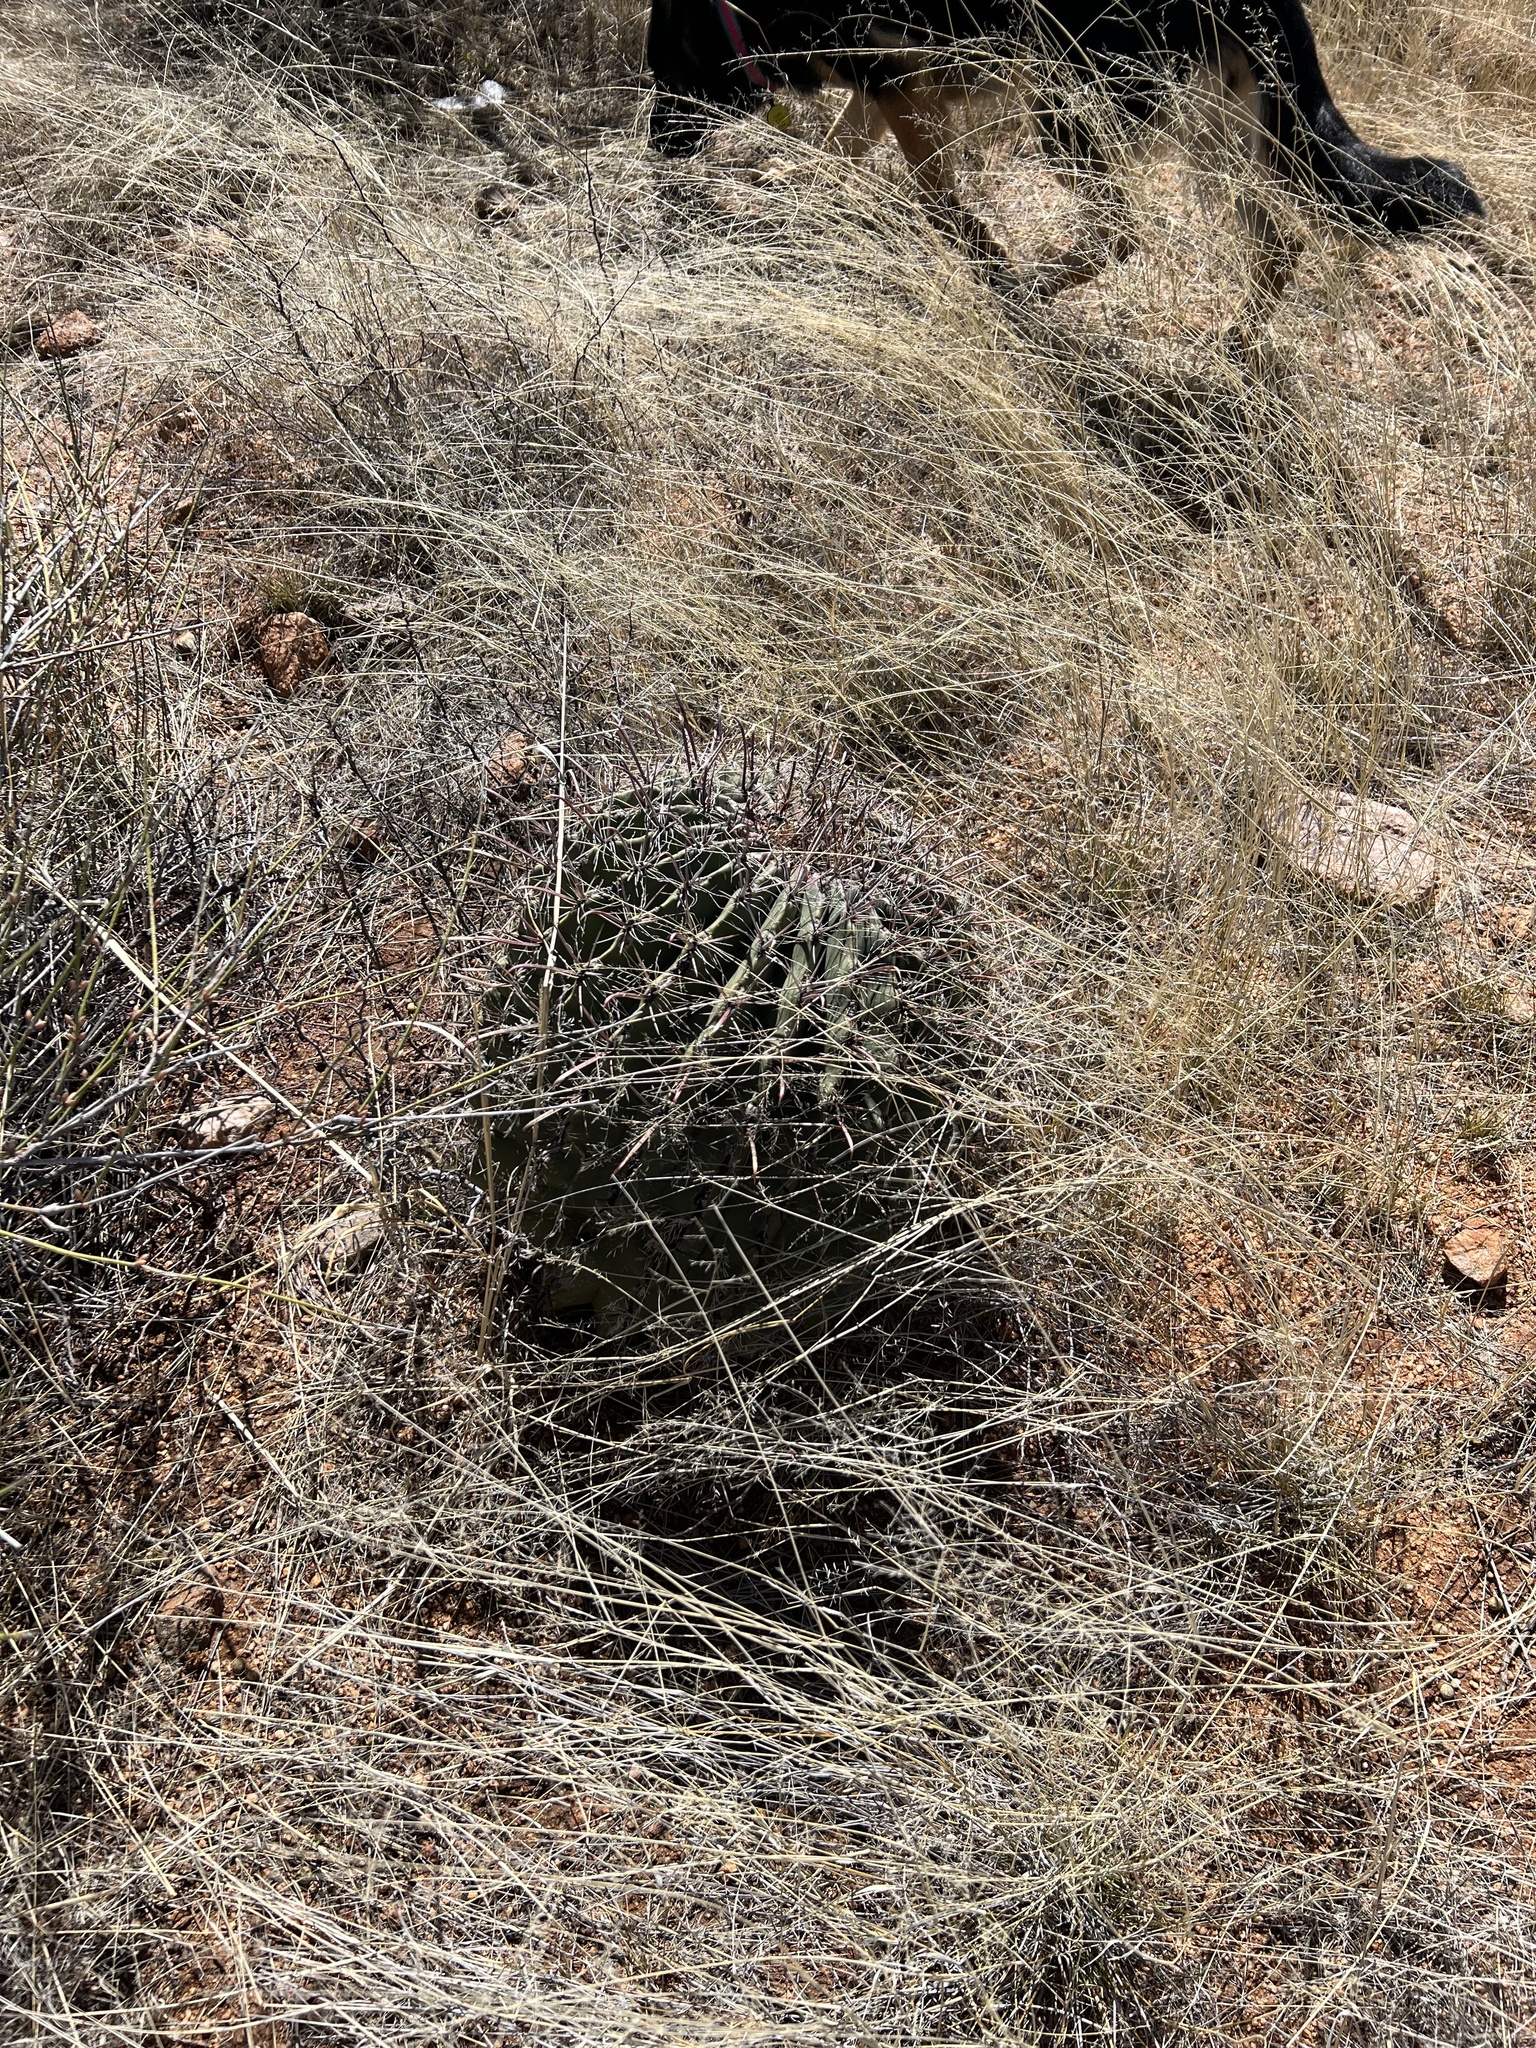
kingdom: Plantae
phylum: Tracheophyta
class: Magnoliopsida
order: Caryophyllales
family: Cactaceae
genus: Ferocactus
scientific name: Ferocactus wislizeni
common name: Candy barrel cactus
